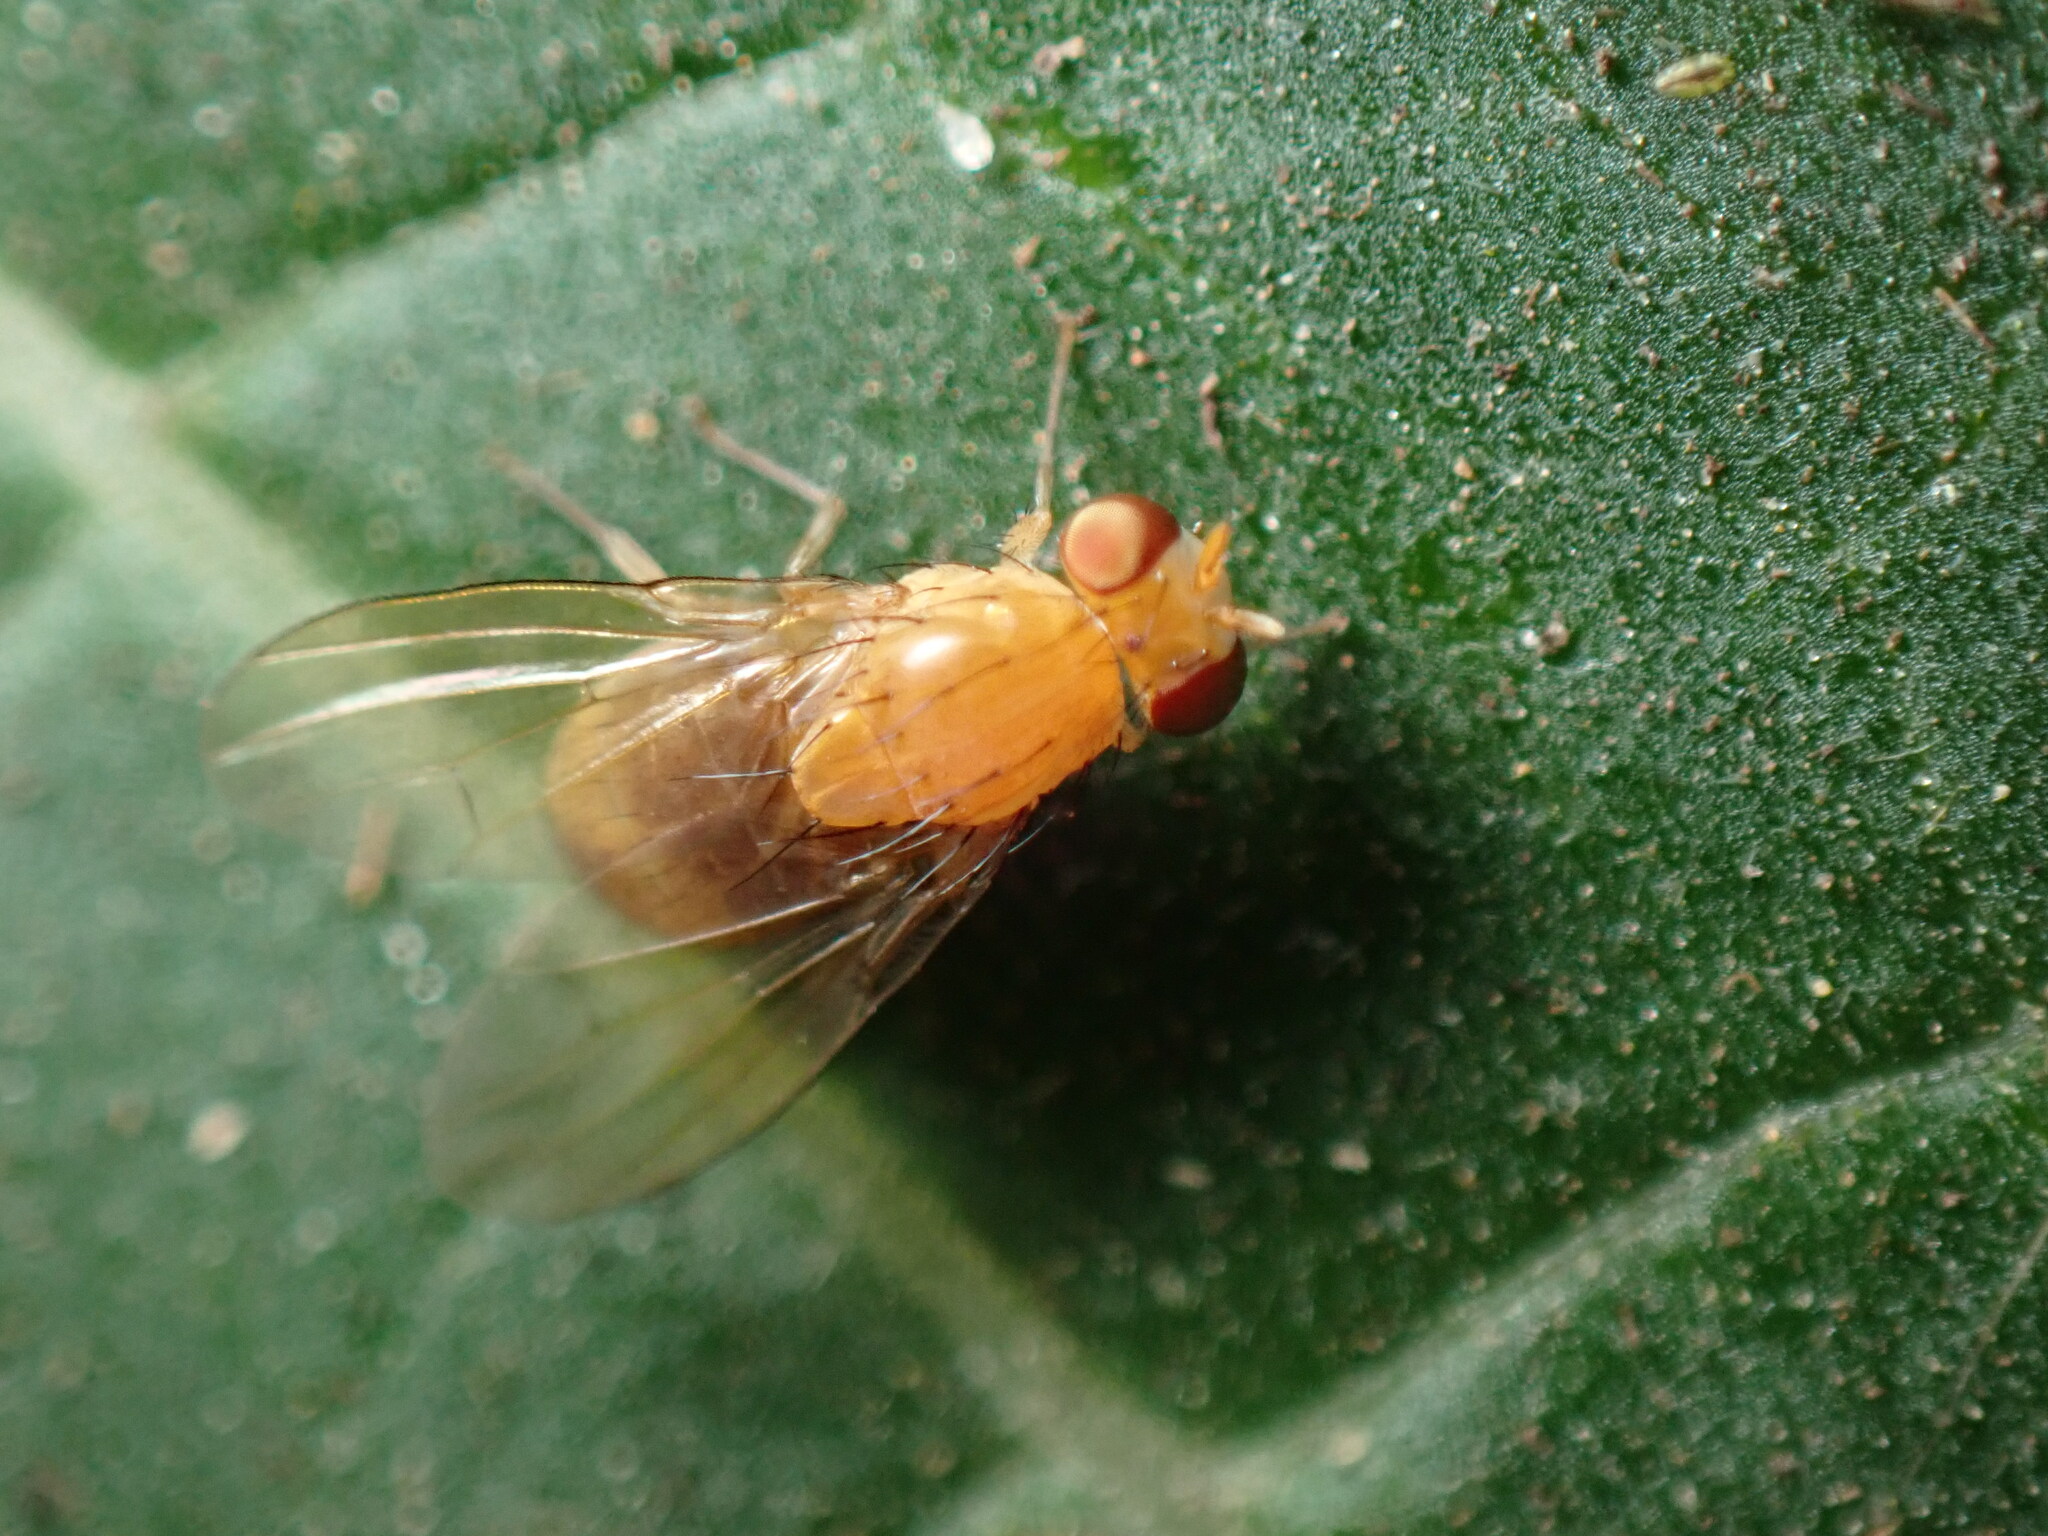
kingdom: Animalia
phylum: Arthropoda
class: Insecta
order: Diptera
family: Lauxaniidae
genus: Neogriphoneura
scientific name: Neogriphoneura sordida
